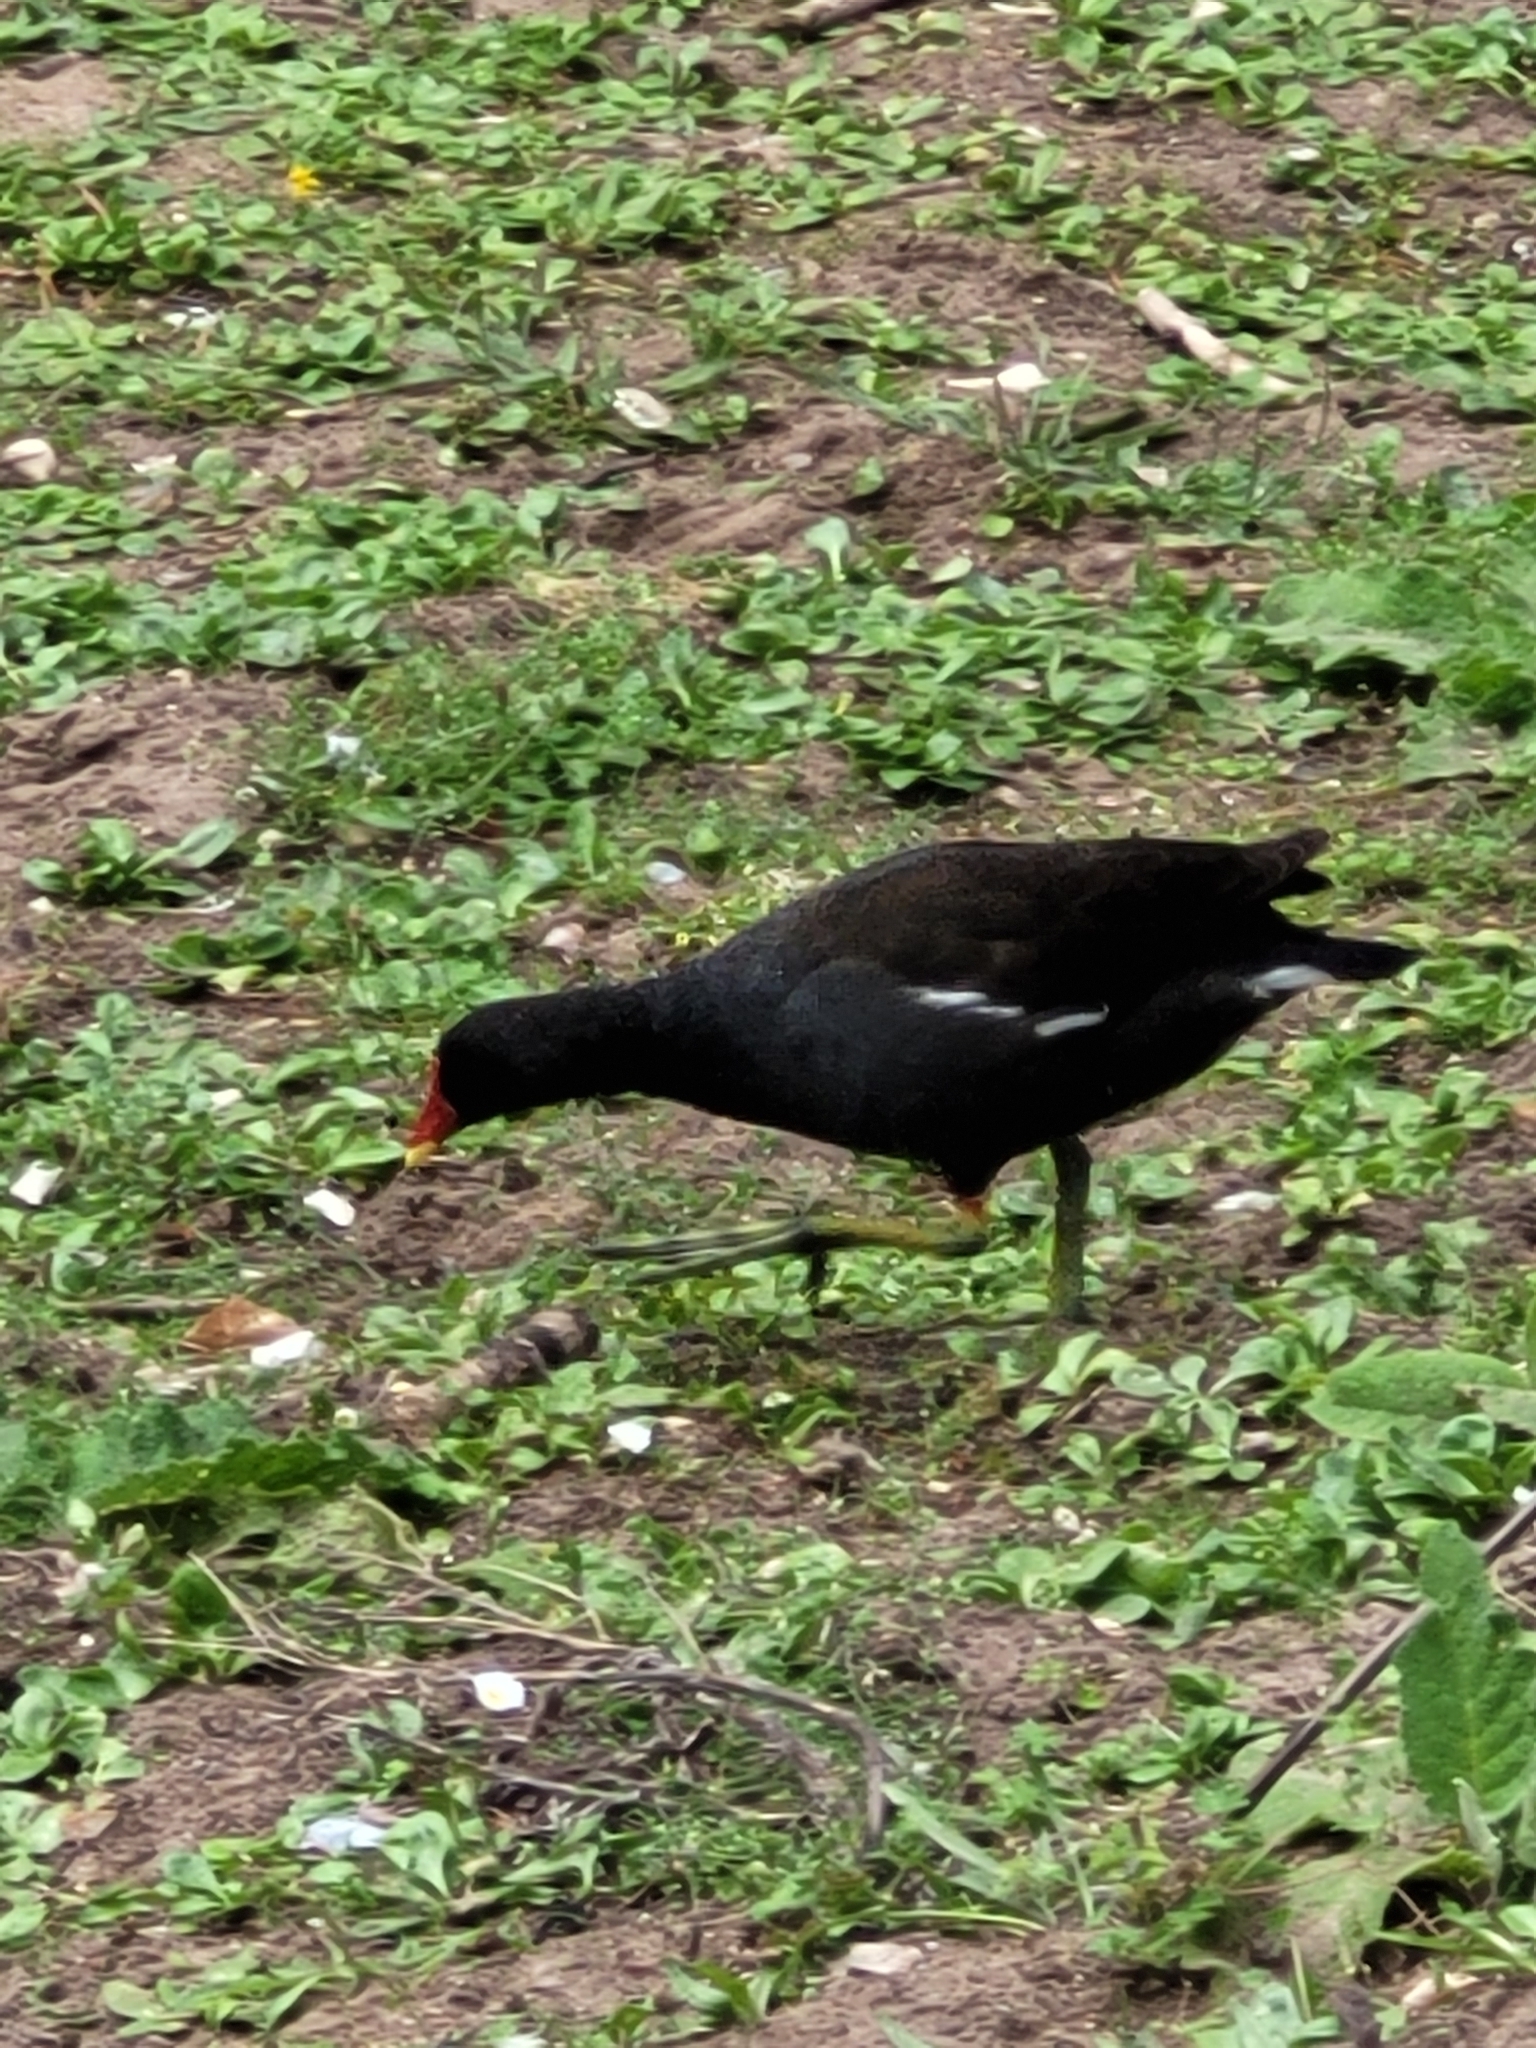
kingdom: Animalia
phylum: Chordata
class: Aves
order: Gruiformes
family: Rallidae
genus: Gallinula
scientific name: Gallinula chloropus
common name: Common moorhen
